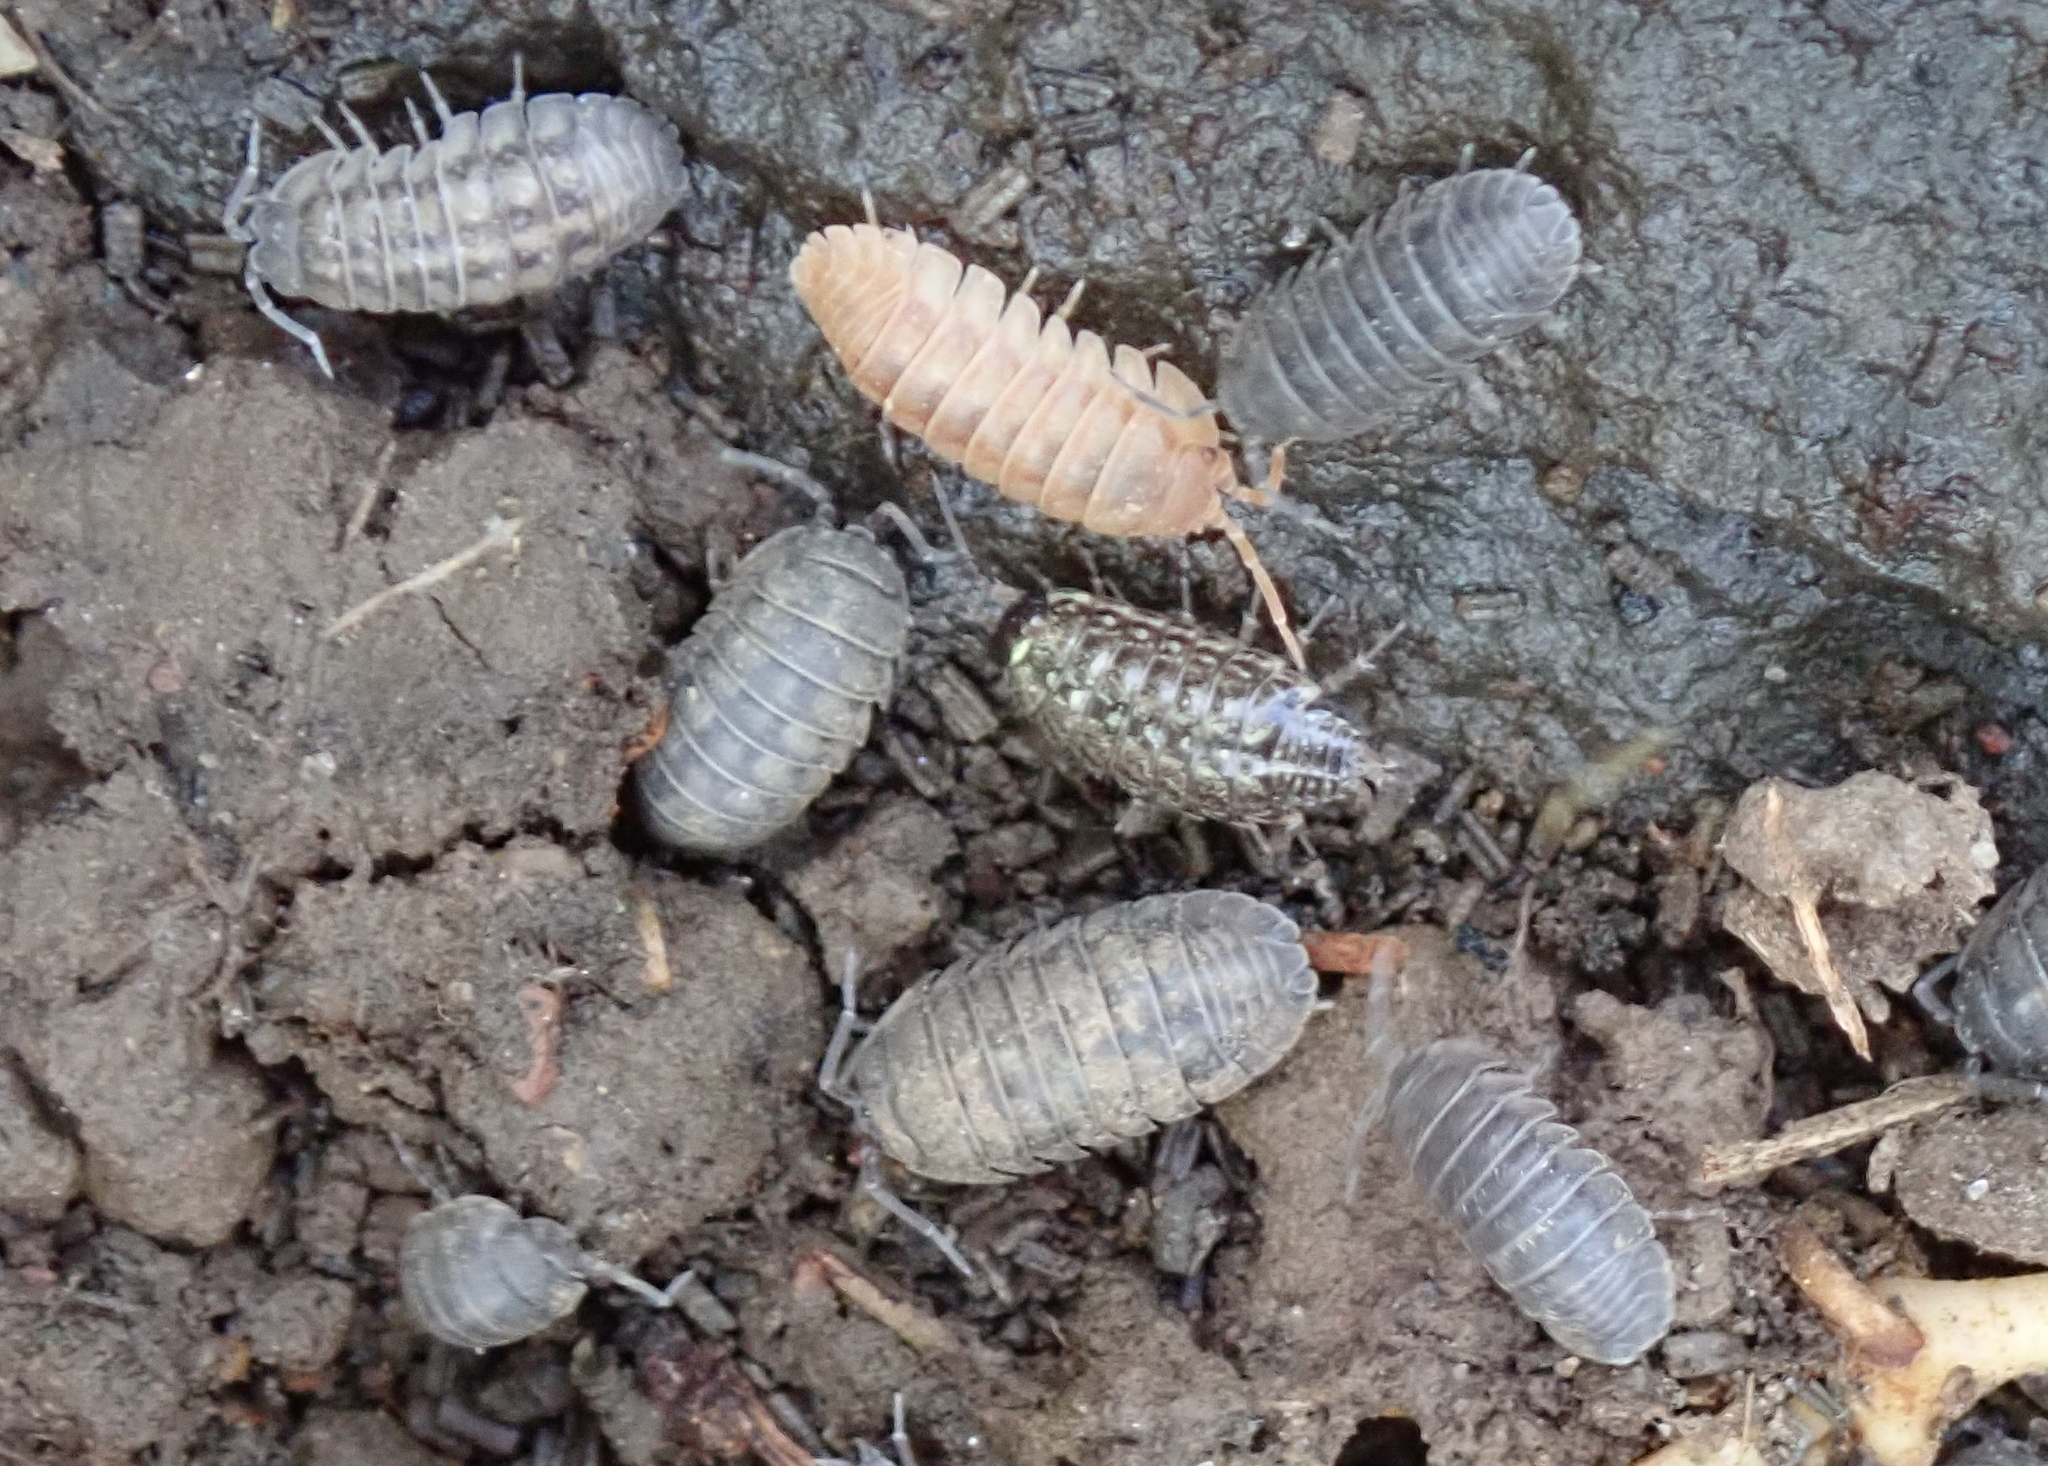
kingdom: Animalia
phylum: Arthropoda
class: Malacostraca
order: Isopoda
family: Armadillidiidae
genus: Armadillidium
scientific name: Armadillidium nasatum
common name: Isopod
